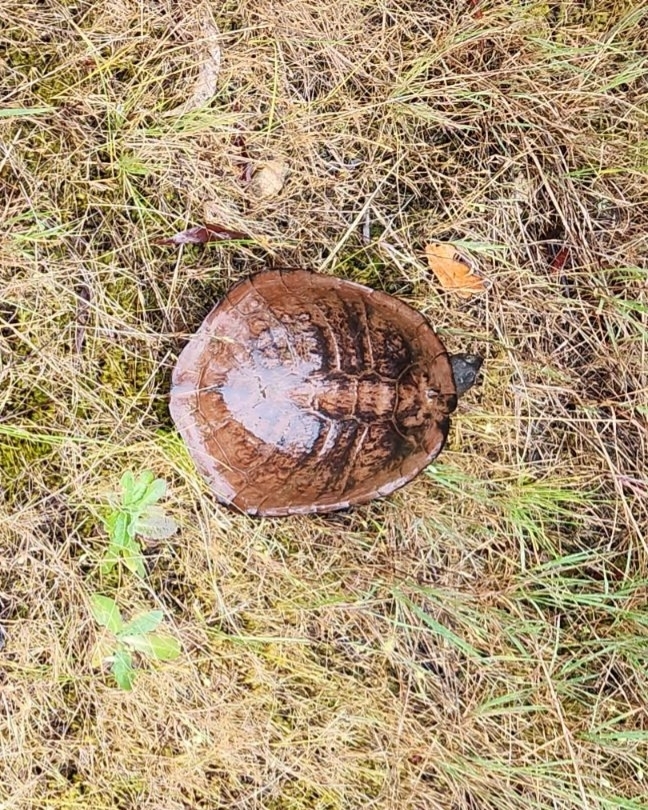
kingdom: Animalia
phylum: Chordata
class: Testudines
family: Chelidae
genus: Chelodina
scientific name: Chelodina longicollis
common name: Eastern snake-necked turtle
